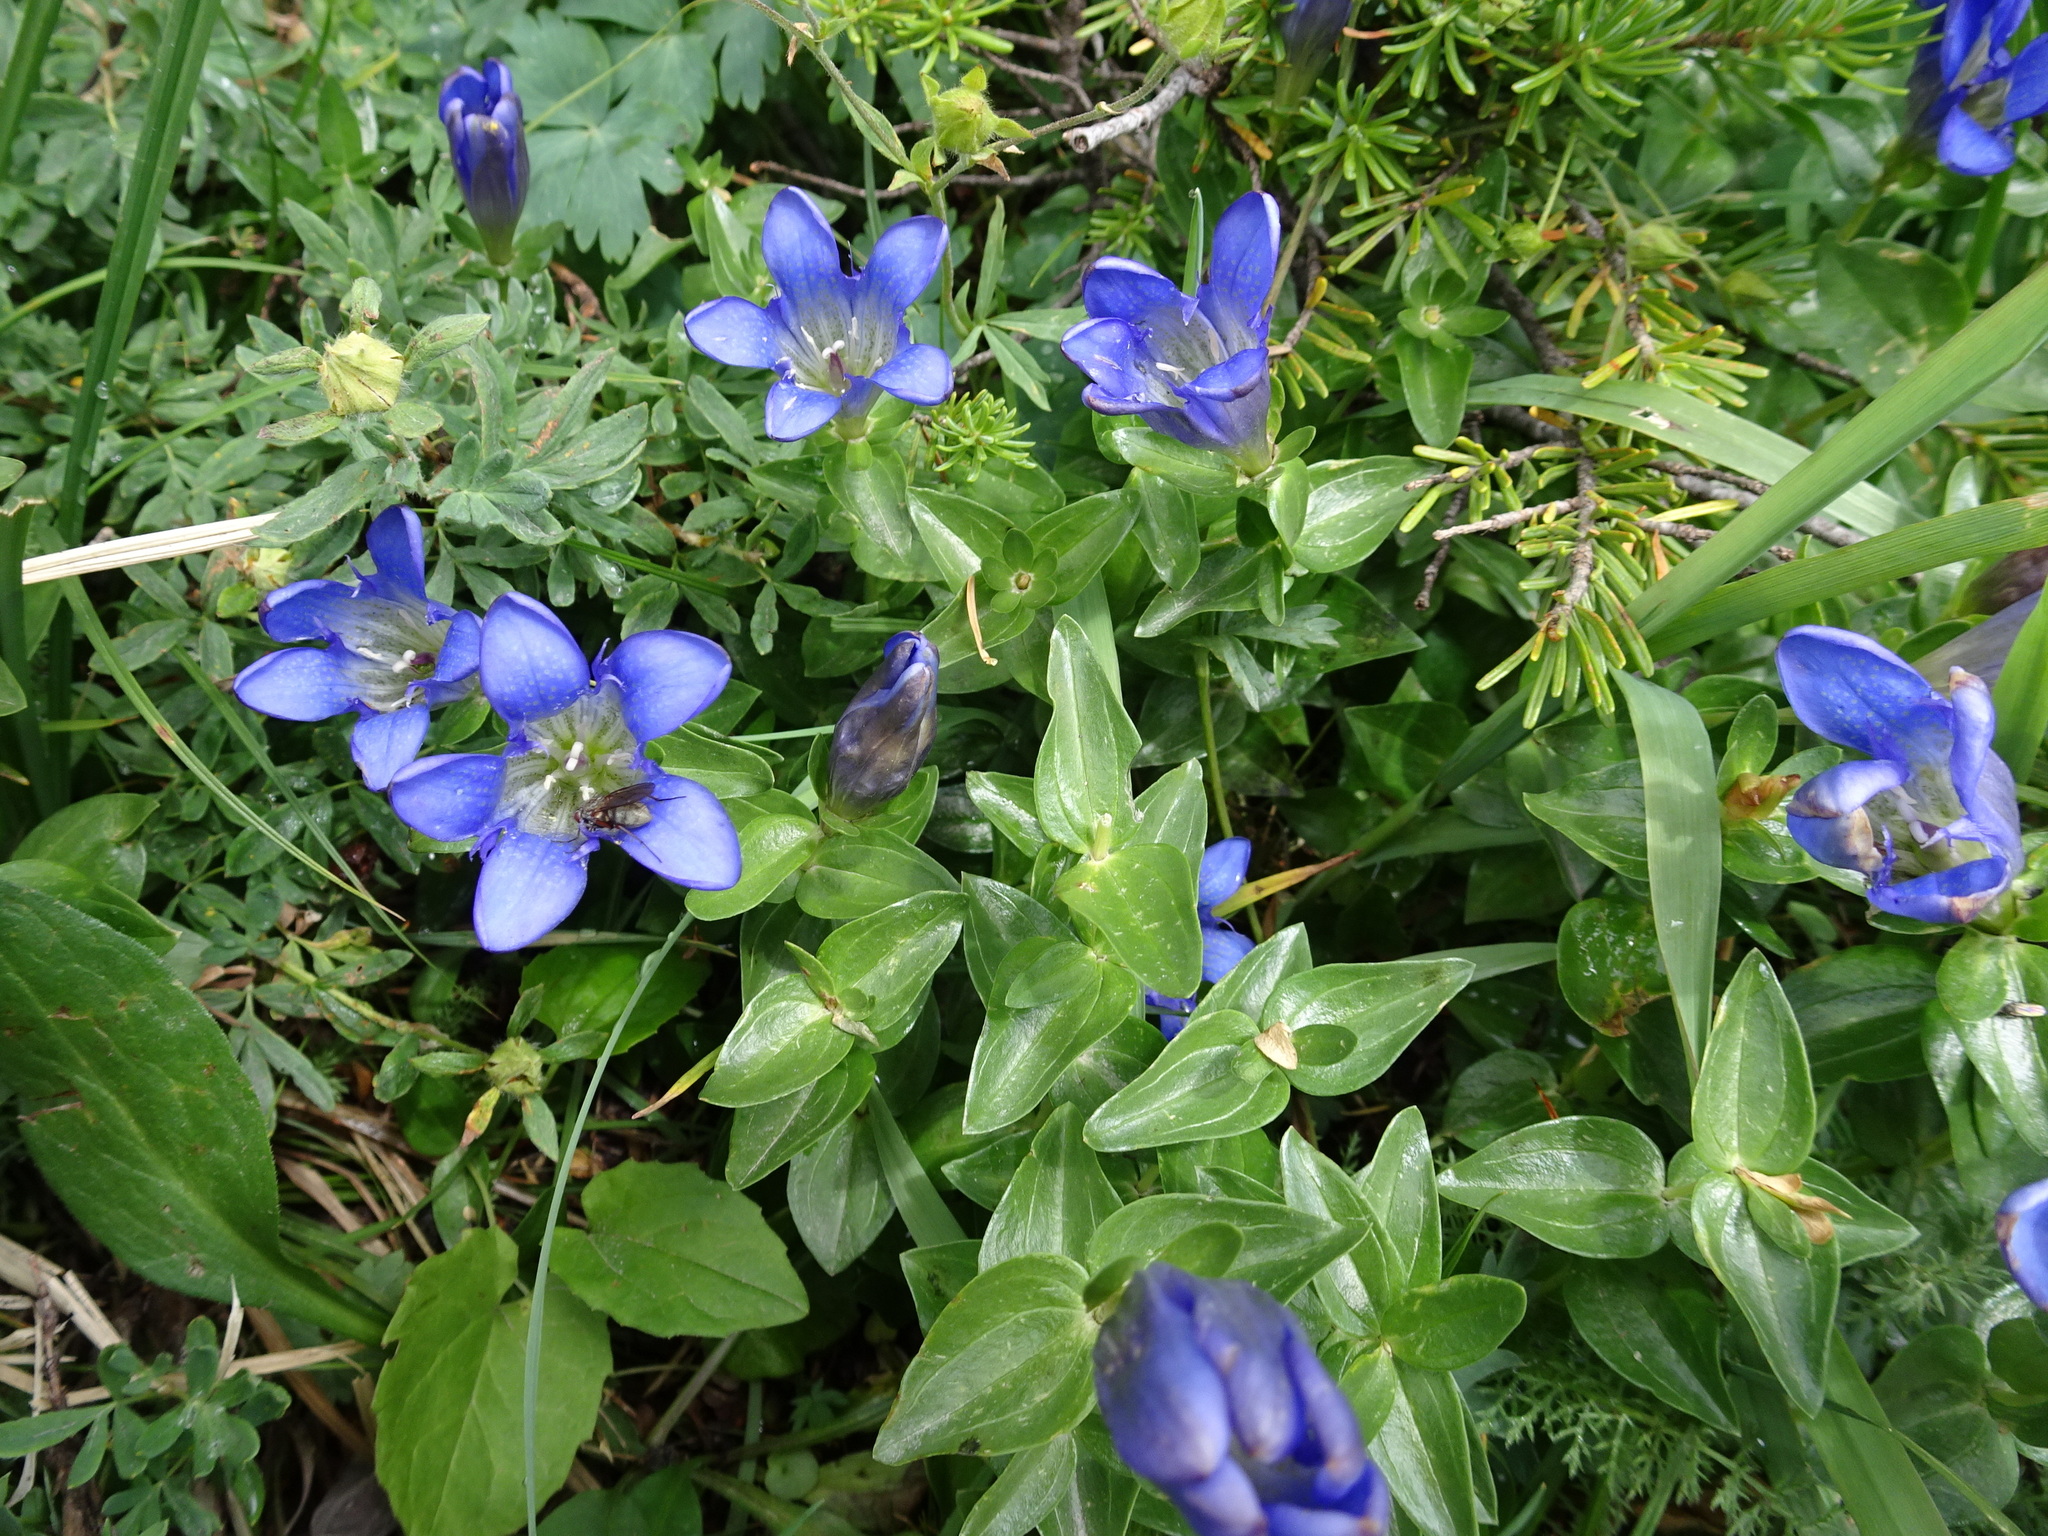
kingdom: Plantae
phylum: Tracheophyta
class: Magnoliopsida
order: Gentianales
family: Gentianaceae
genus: Gentiana
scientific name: Gentiana calycosa
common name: Rainier pleated gentian
